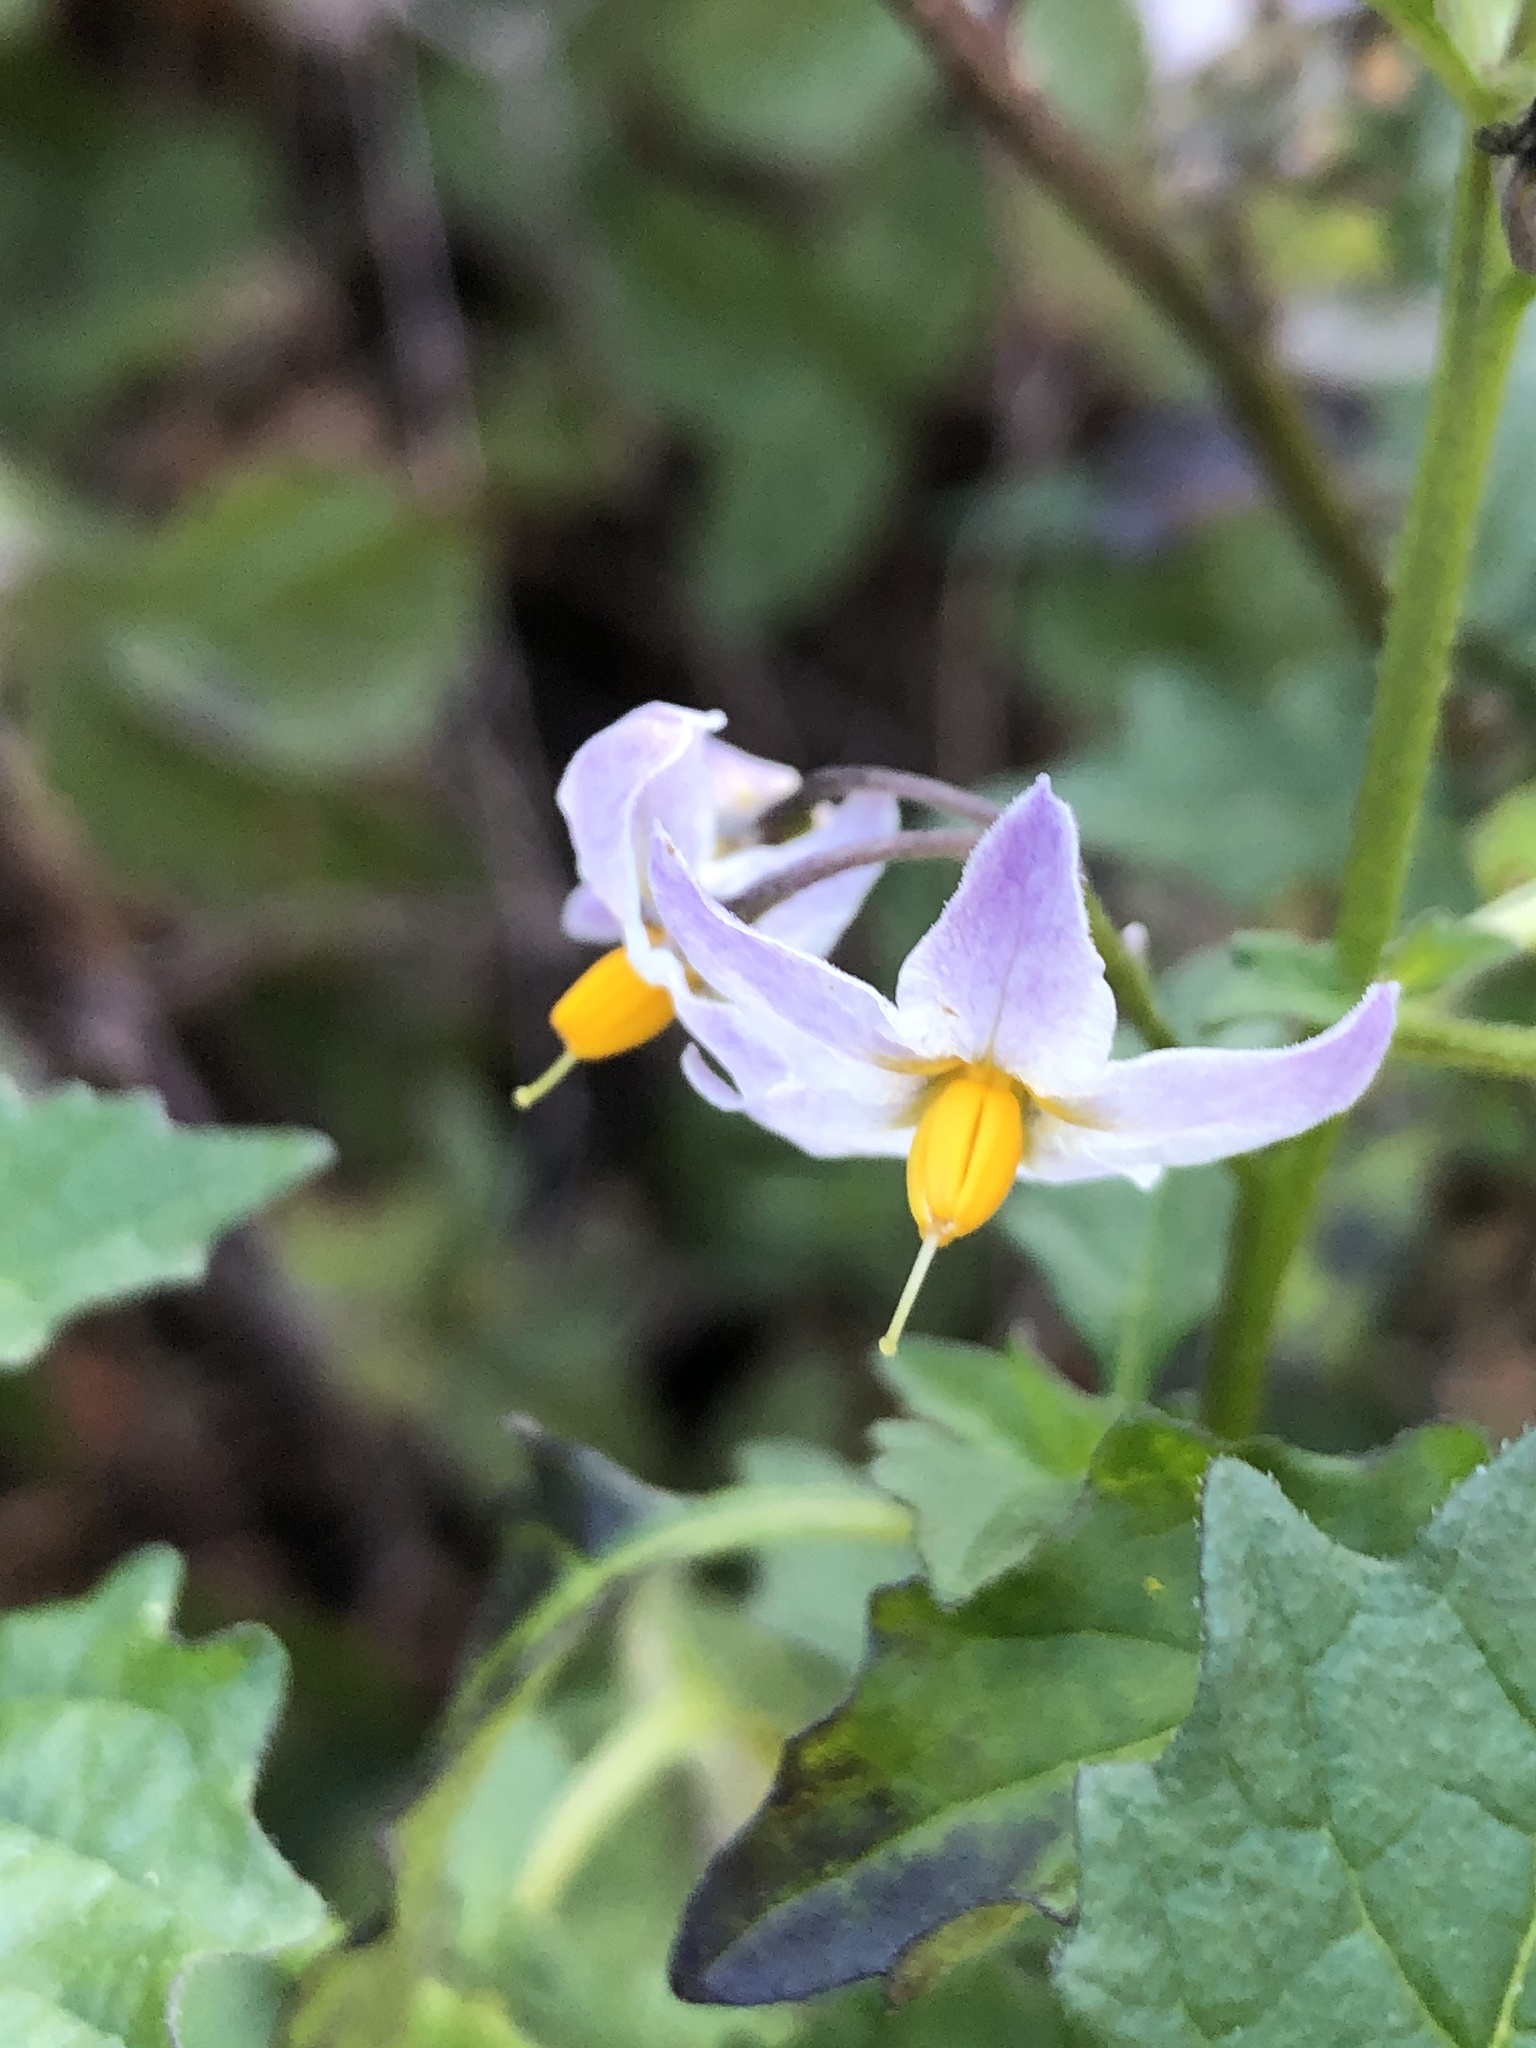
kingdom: Plantae
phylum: Tracheophyta
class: Magnoliopsida
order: Solanales
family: Solanaceae
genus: Solanum
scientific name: Solanum douglasii
